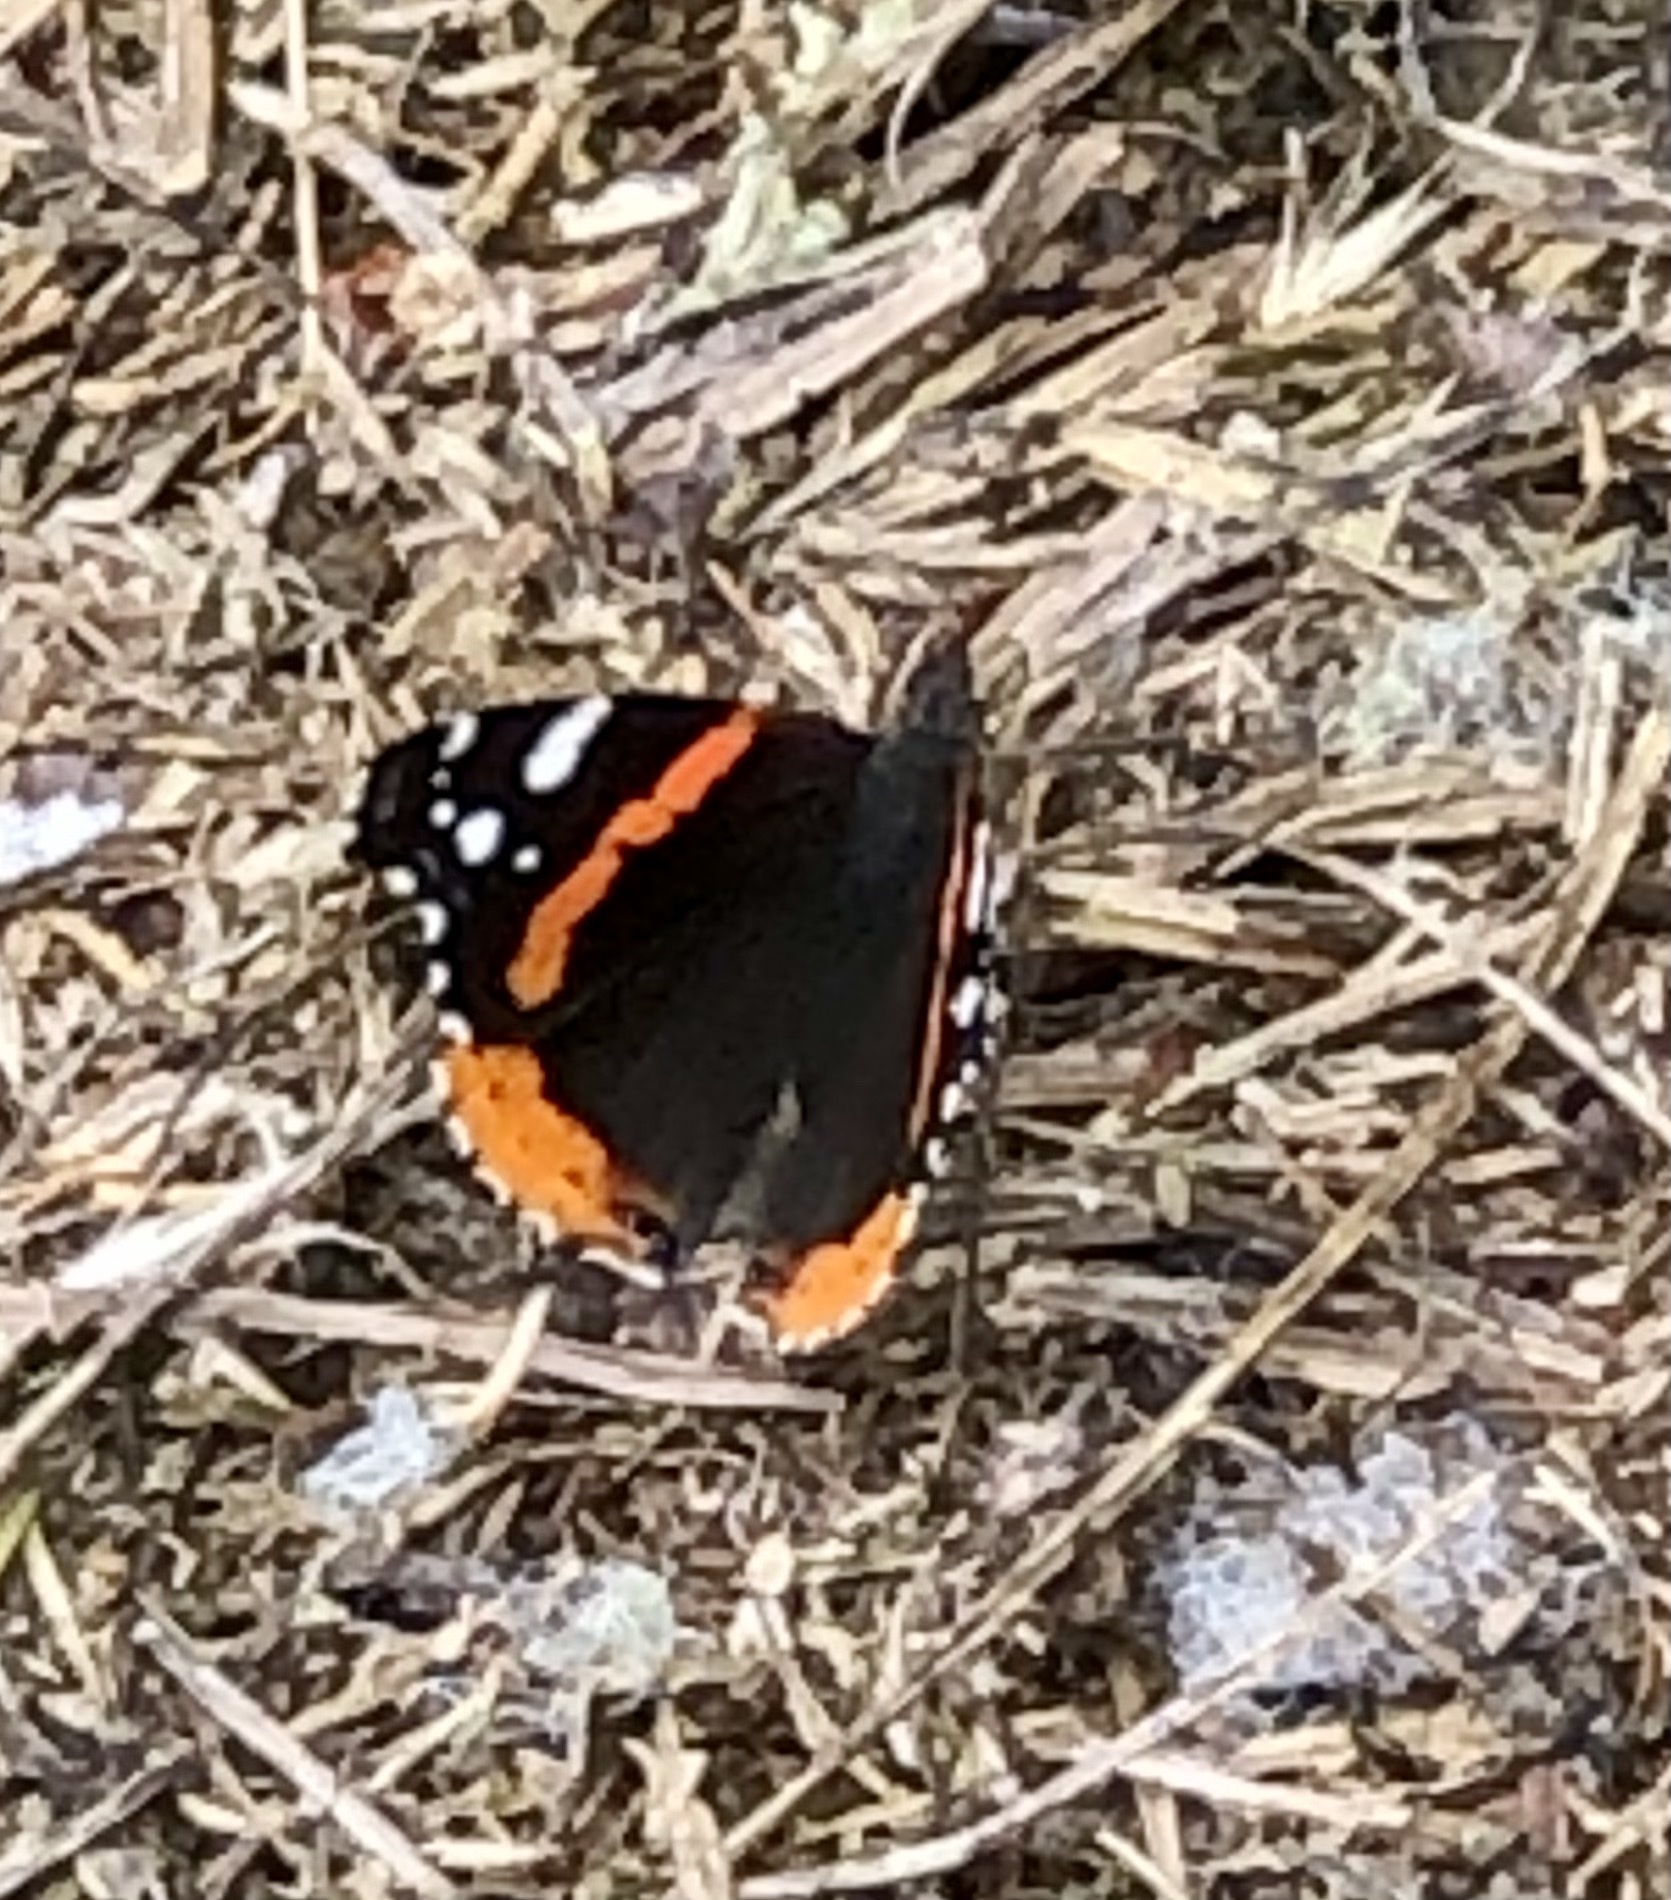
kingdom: Animalia
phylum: Arthropoda
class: Insecta
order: Lepidoptera
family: Nymphalidae
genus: Vanessa
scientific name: Vanessa atalanta
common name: Red admiral
